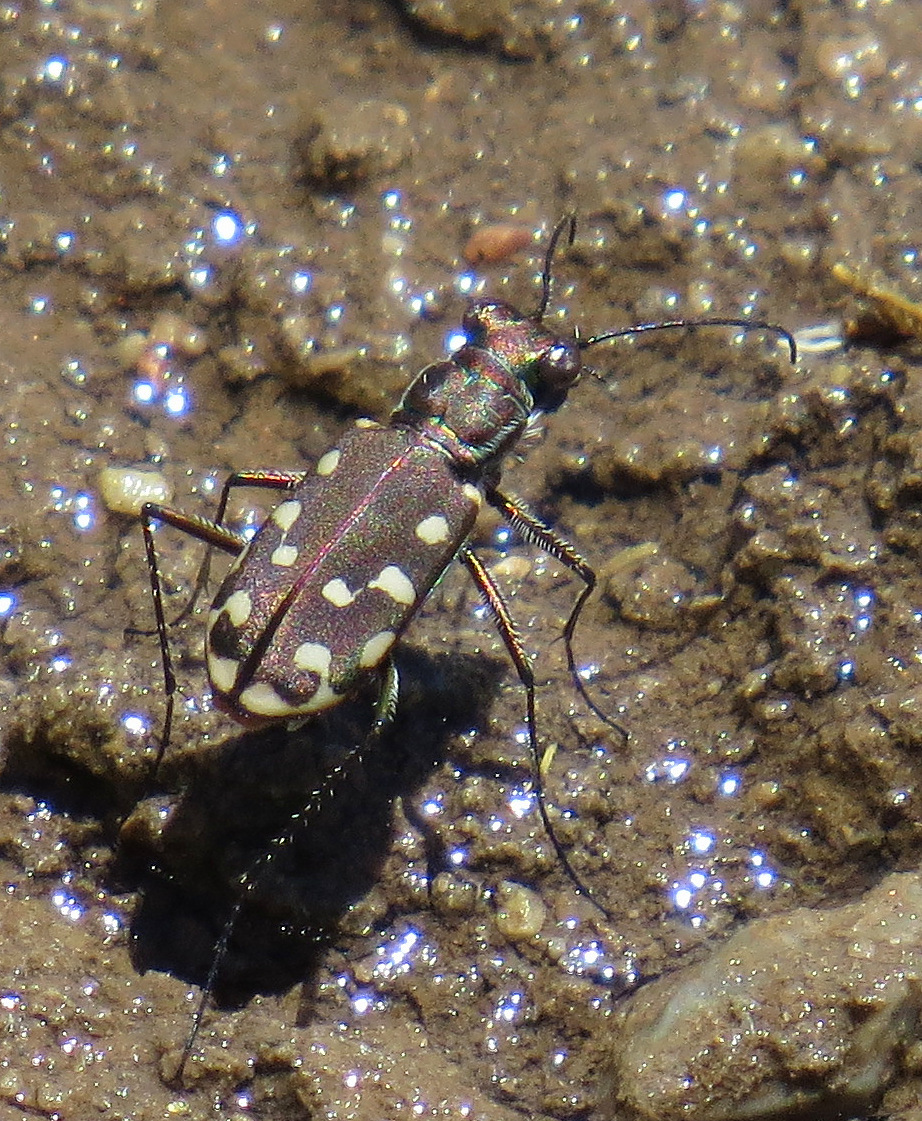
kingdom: Animalia
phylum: Arthropoda
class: Insecta
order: Coleoptera
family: Carabidae
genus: Cicindela
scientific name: Cicindela sedecimpunctata
